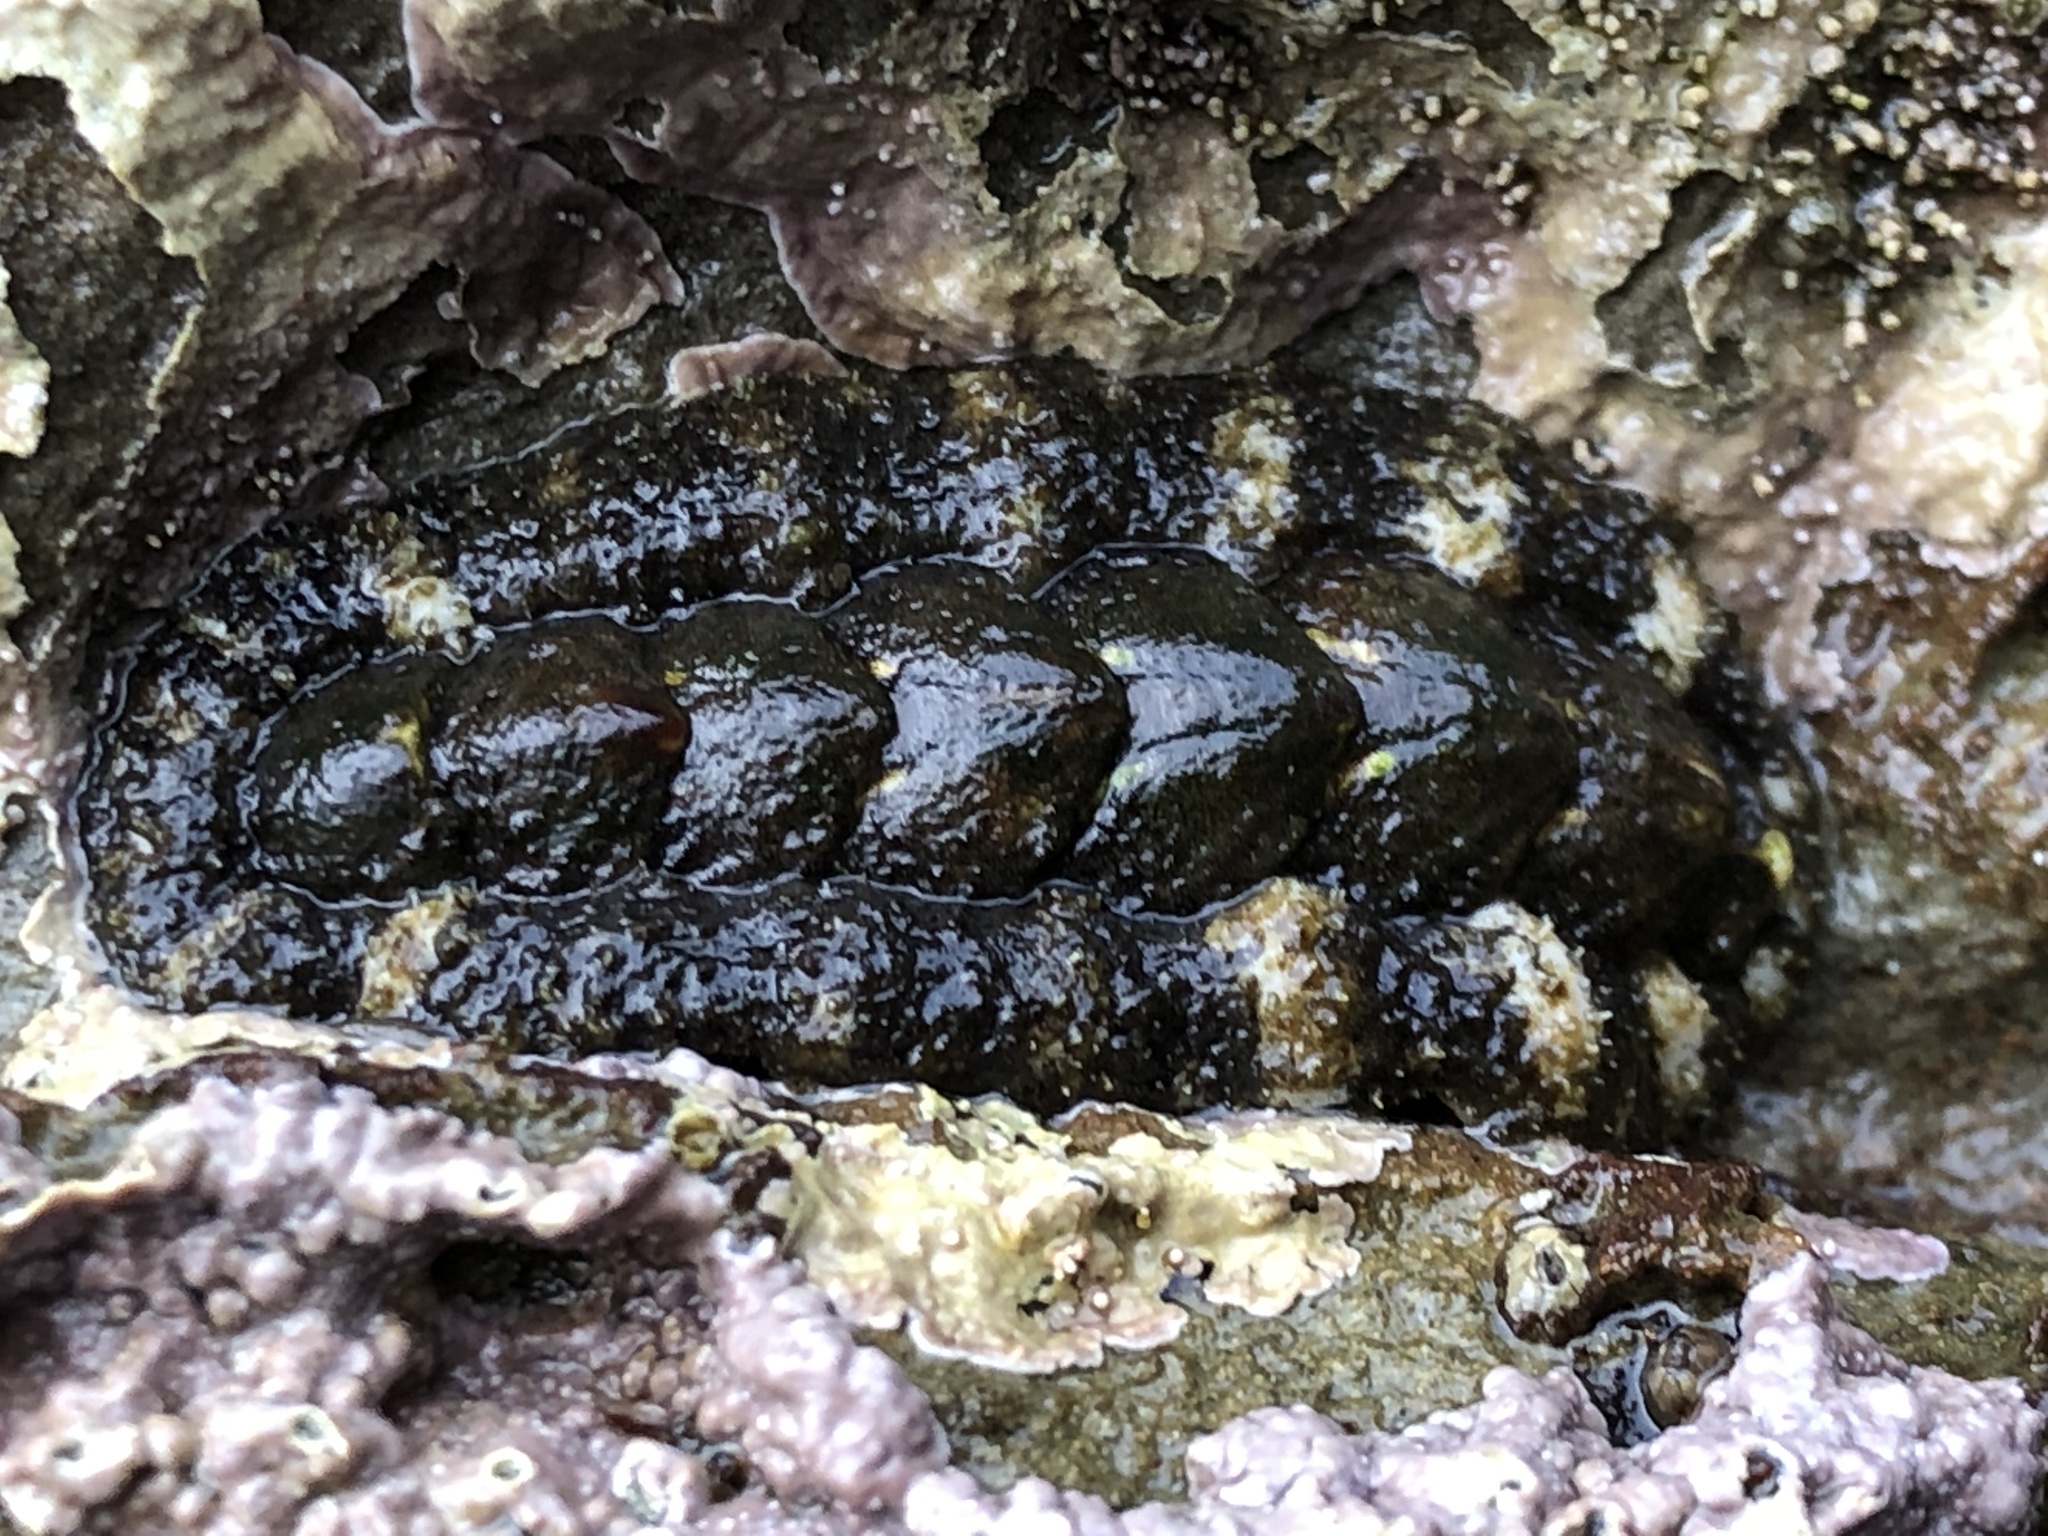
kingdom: Animalia
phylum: Mollusca
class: Polyplacophora
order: Chitonida
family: Tonicellidae
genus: Nuttallina
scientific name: Nuttallina californica
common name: California nuttall chiton
